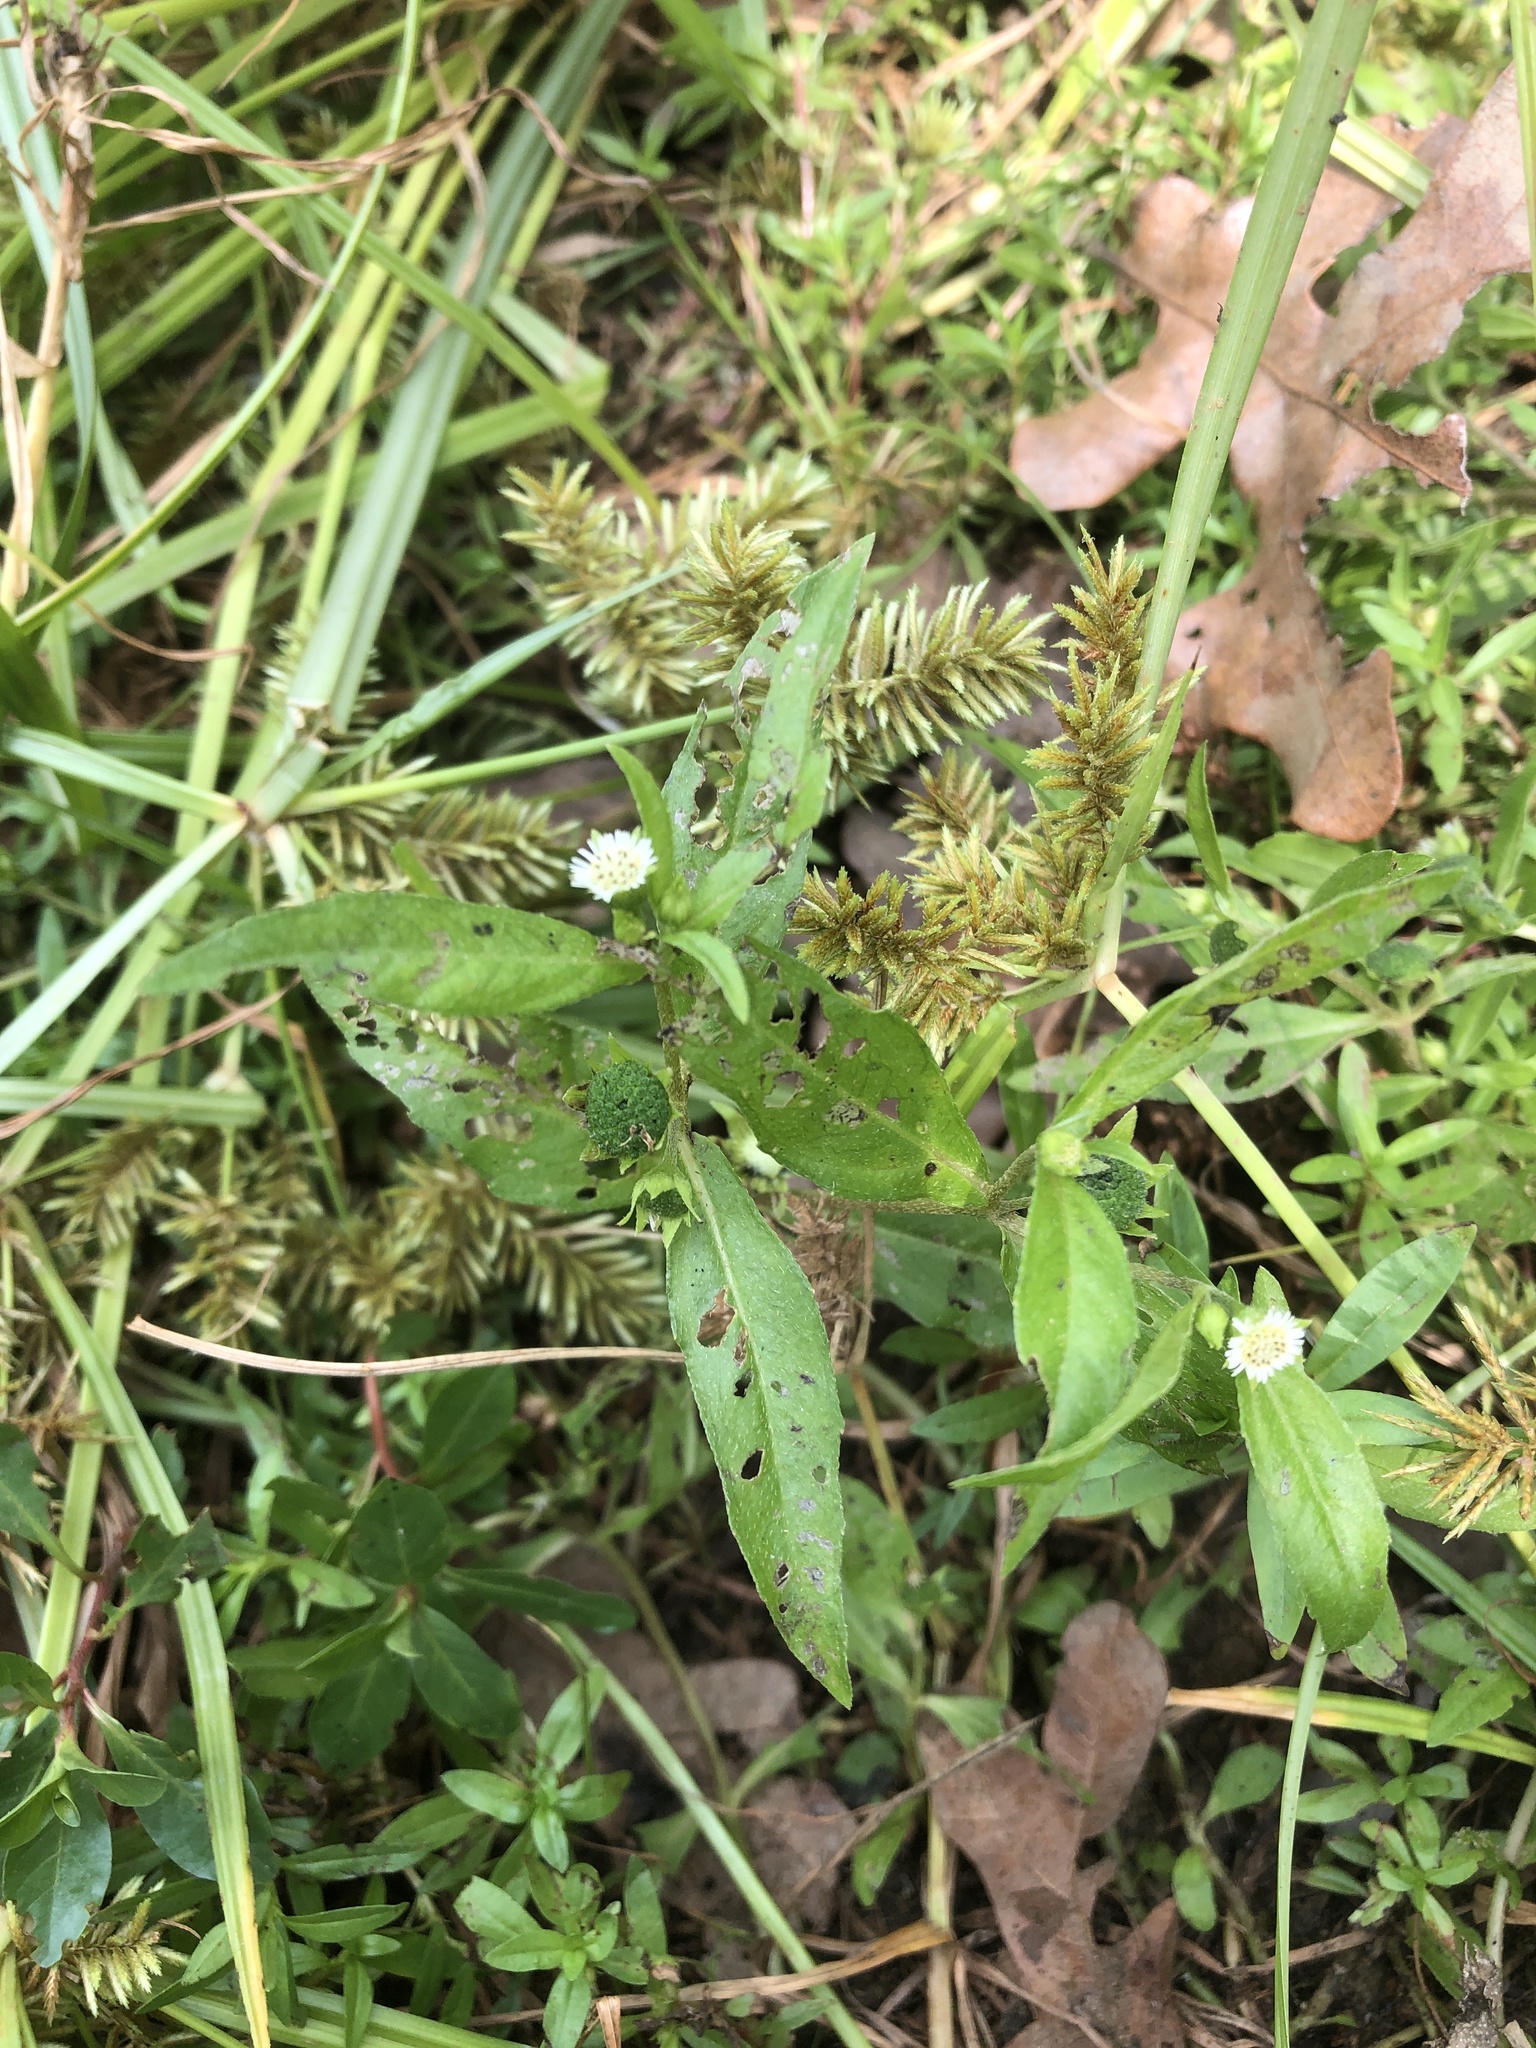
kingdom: Plantae
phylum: Tracheophyta
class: Magnoliopsida
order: Asterales
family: Asteraceae
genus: Eclipta
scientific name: Eclipta prostrata
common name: False daisy
